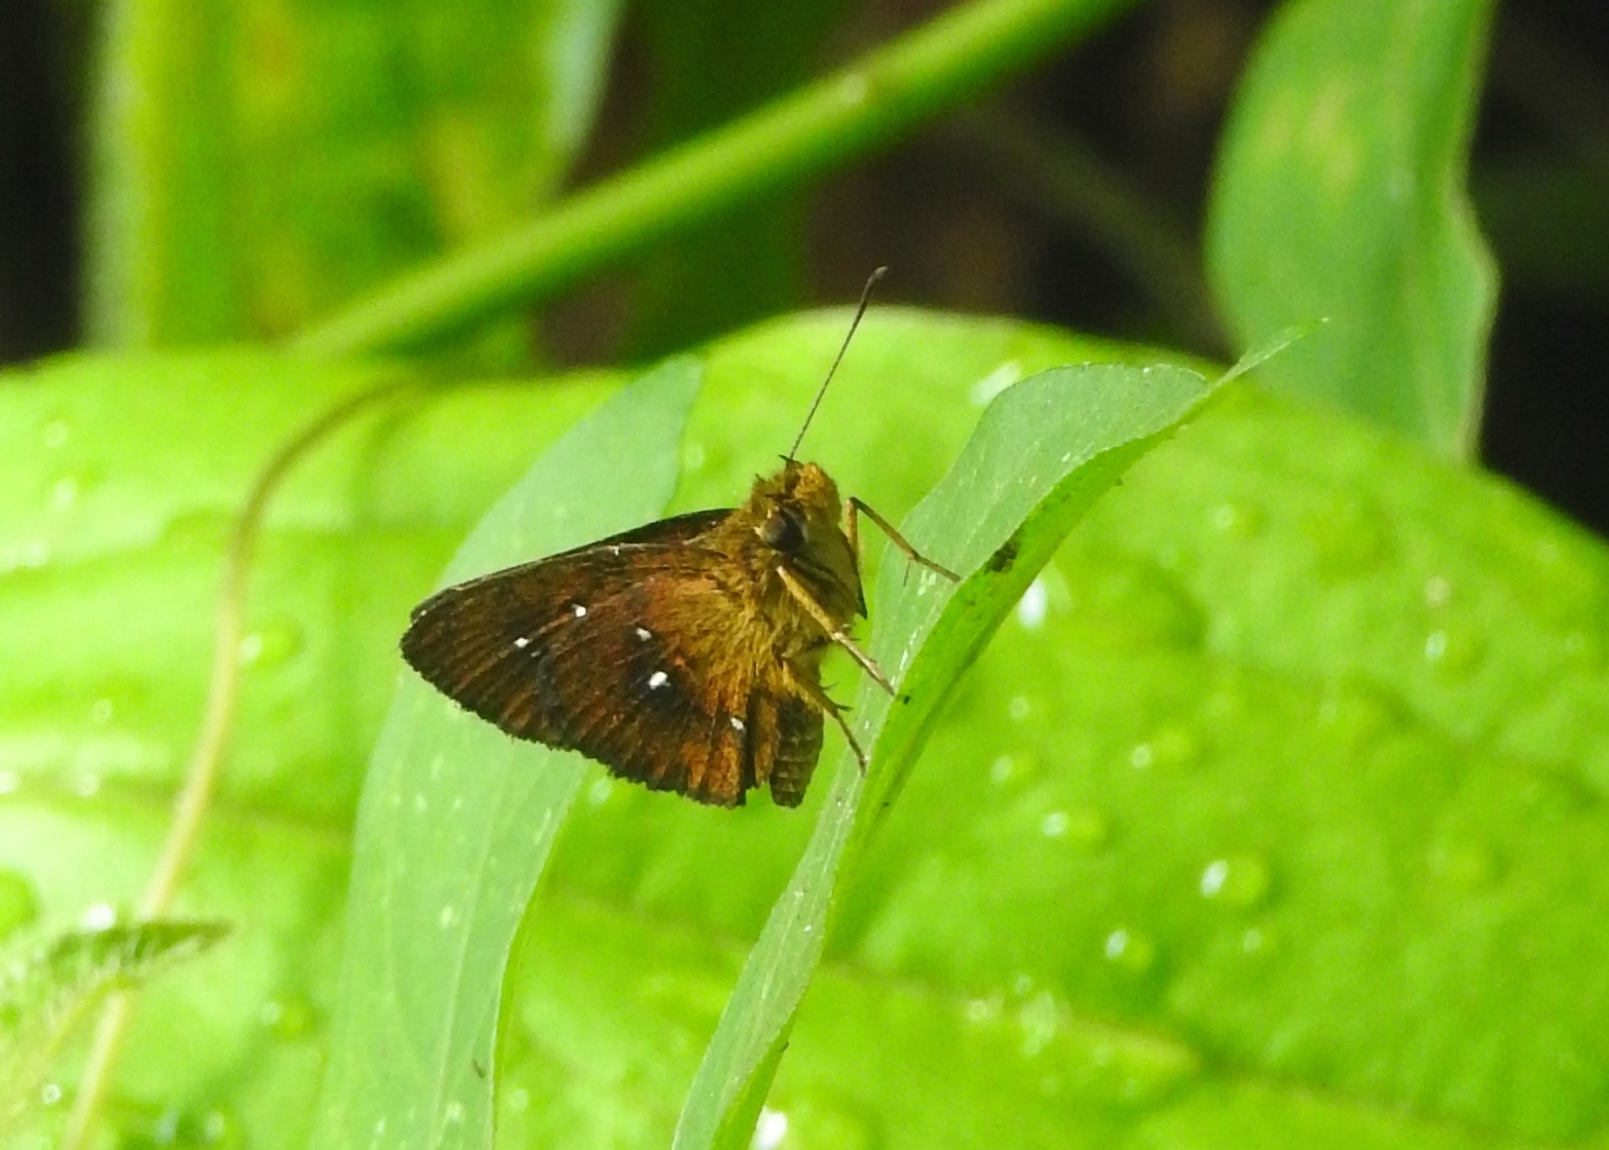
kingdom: Animalia
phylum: Arthropoda
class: Insecta
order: Lepidoptera
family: Hesperiidae
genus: Iambrix
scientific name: Iambrix salsala
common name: Chestnut bob
